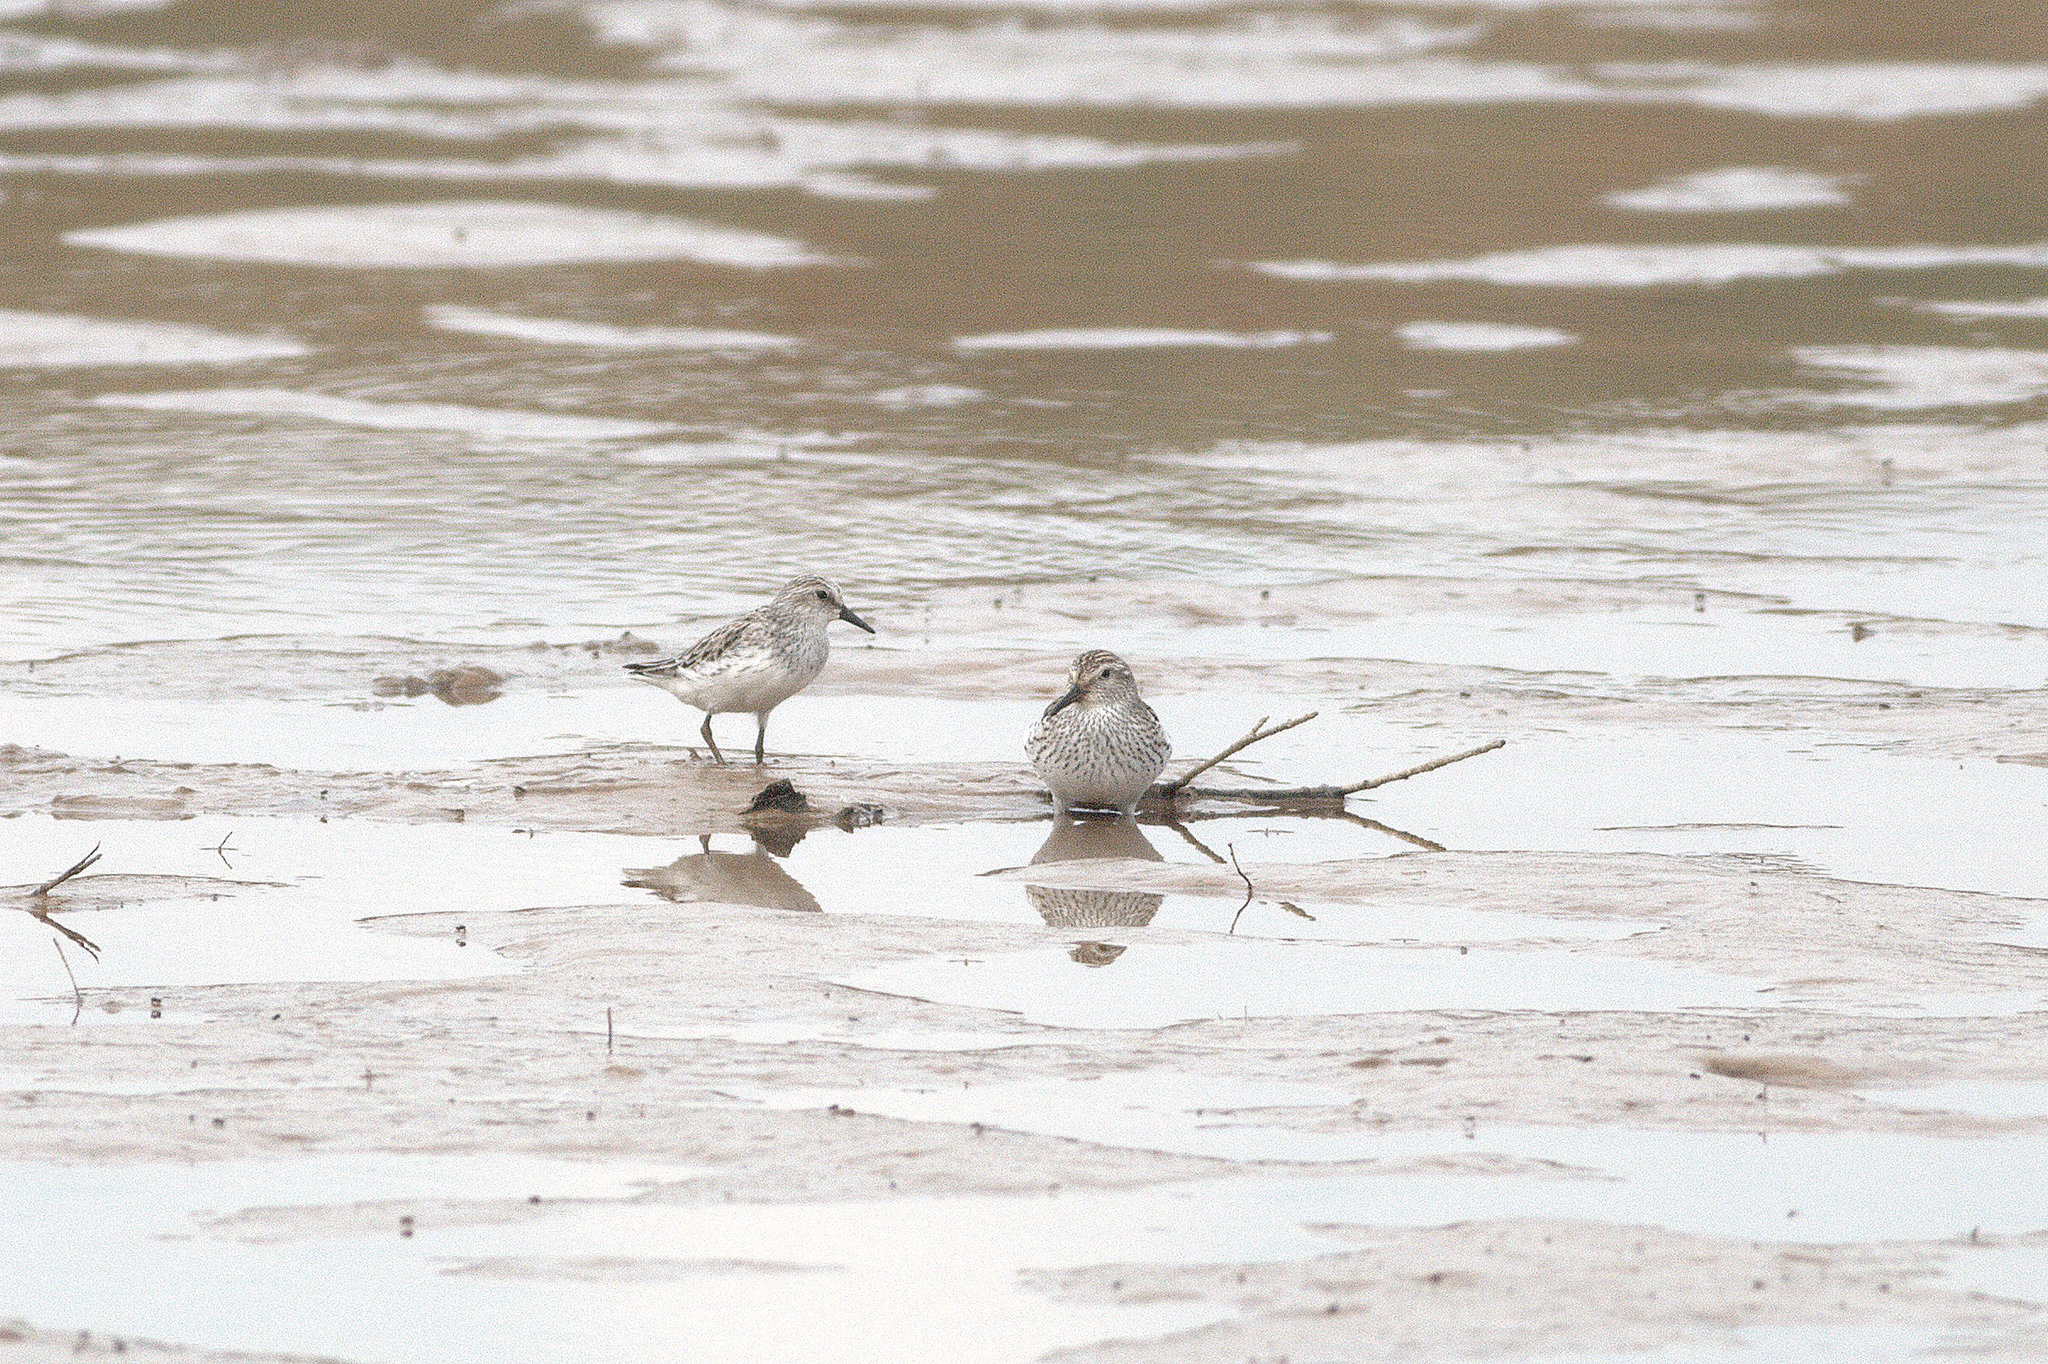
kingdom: Animalia
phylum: Chordata
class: Aves
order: Charadriiformes
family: Scolopacidae
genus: Calidris
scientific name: Calidris fuscicollis
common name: White-rumped sandpiper
